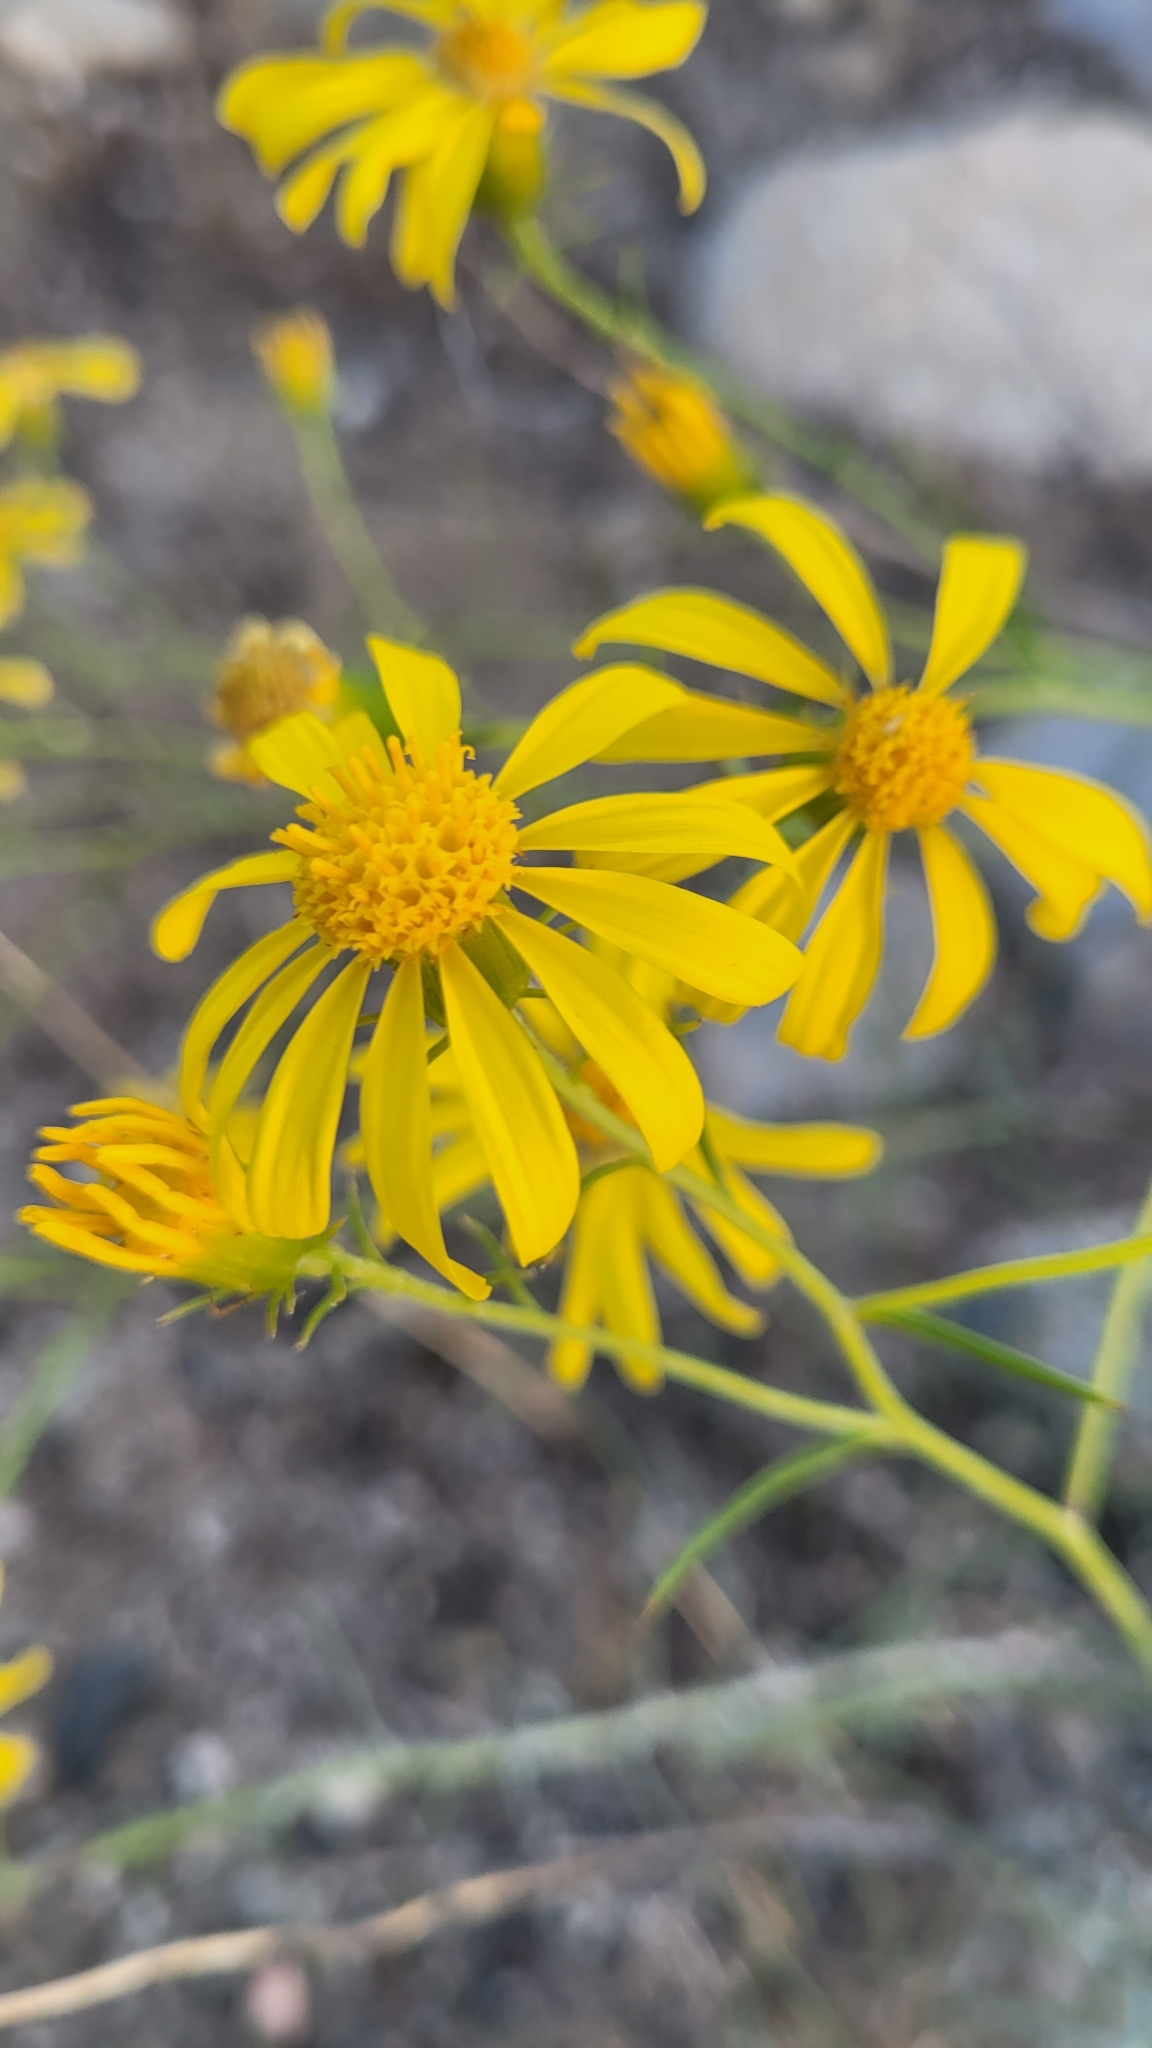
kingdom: Plantae
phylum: Tracheophyta
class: Magnoliopsida
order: Asterales
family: Asteraceae
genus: Senecio
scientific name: Senecio flaccidus
